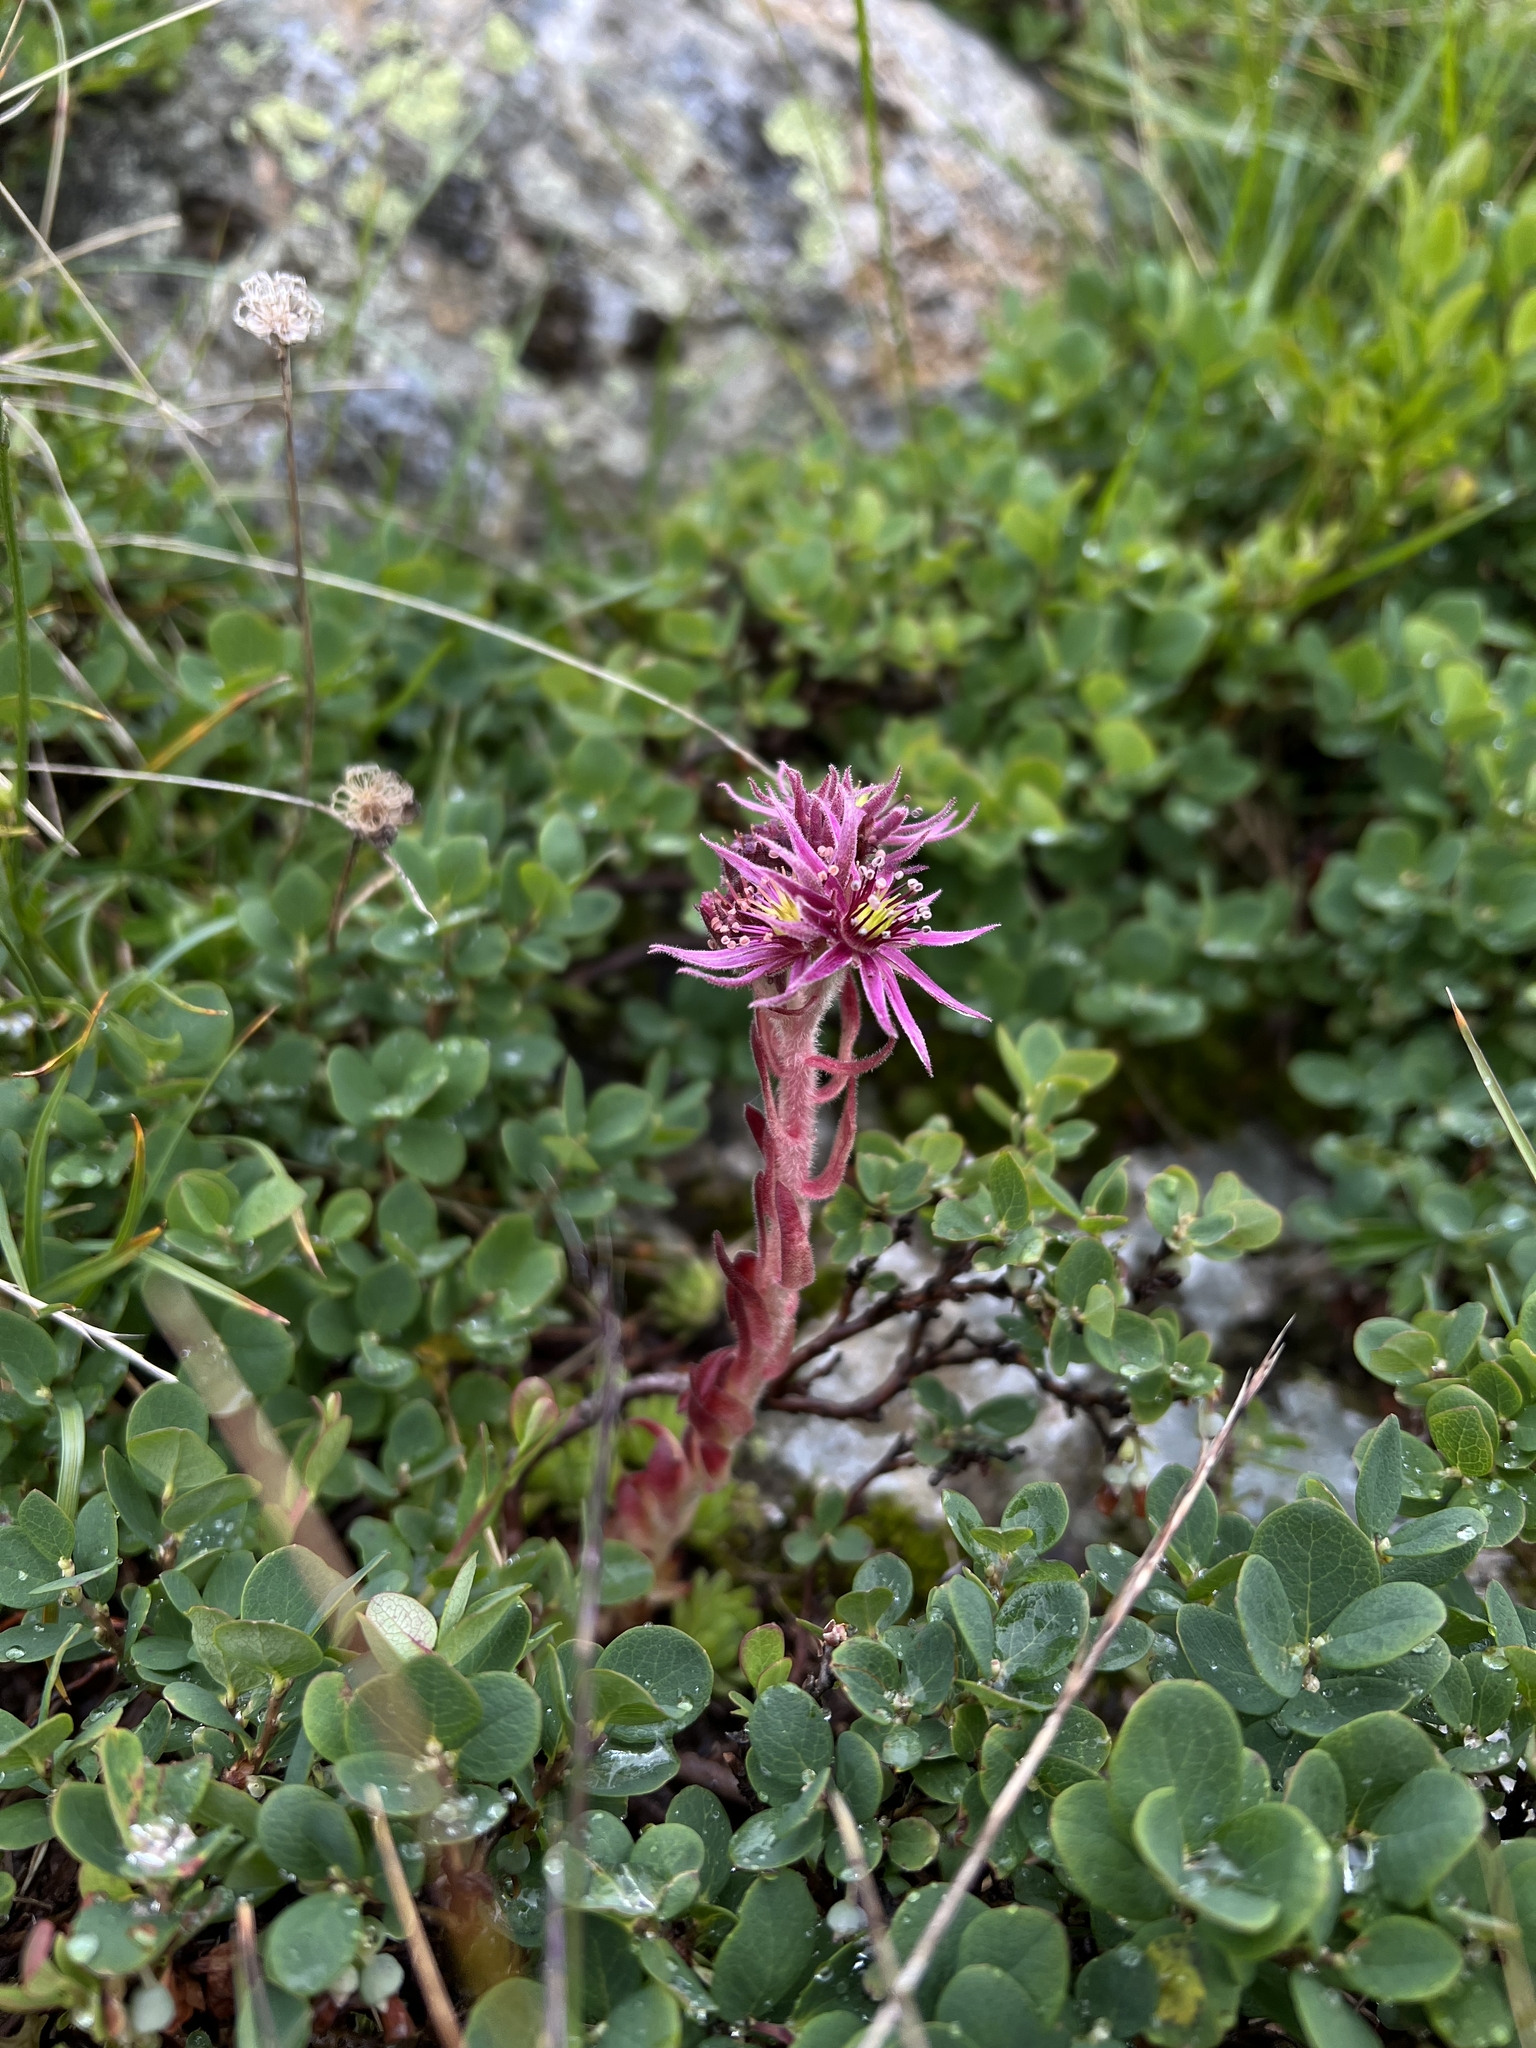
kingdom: Plantae
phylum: Tracheophyta
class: Magnoliopsida
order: Saxifragales
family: Crassulaceae
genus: Sempervivum
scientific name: Sempervivum montanum
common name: Mountain house-leek
